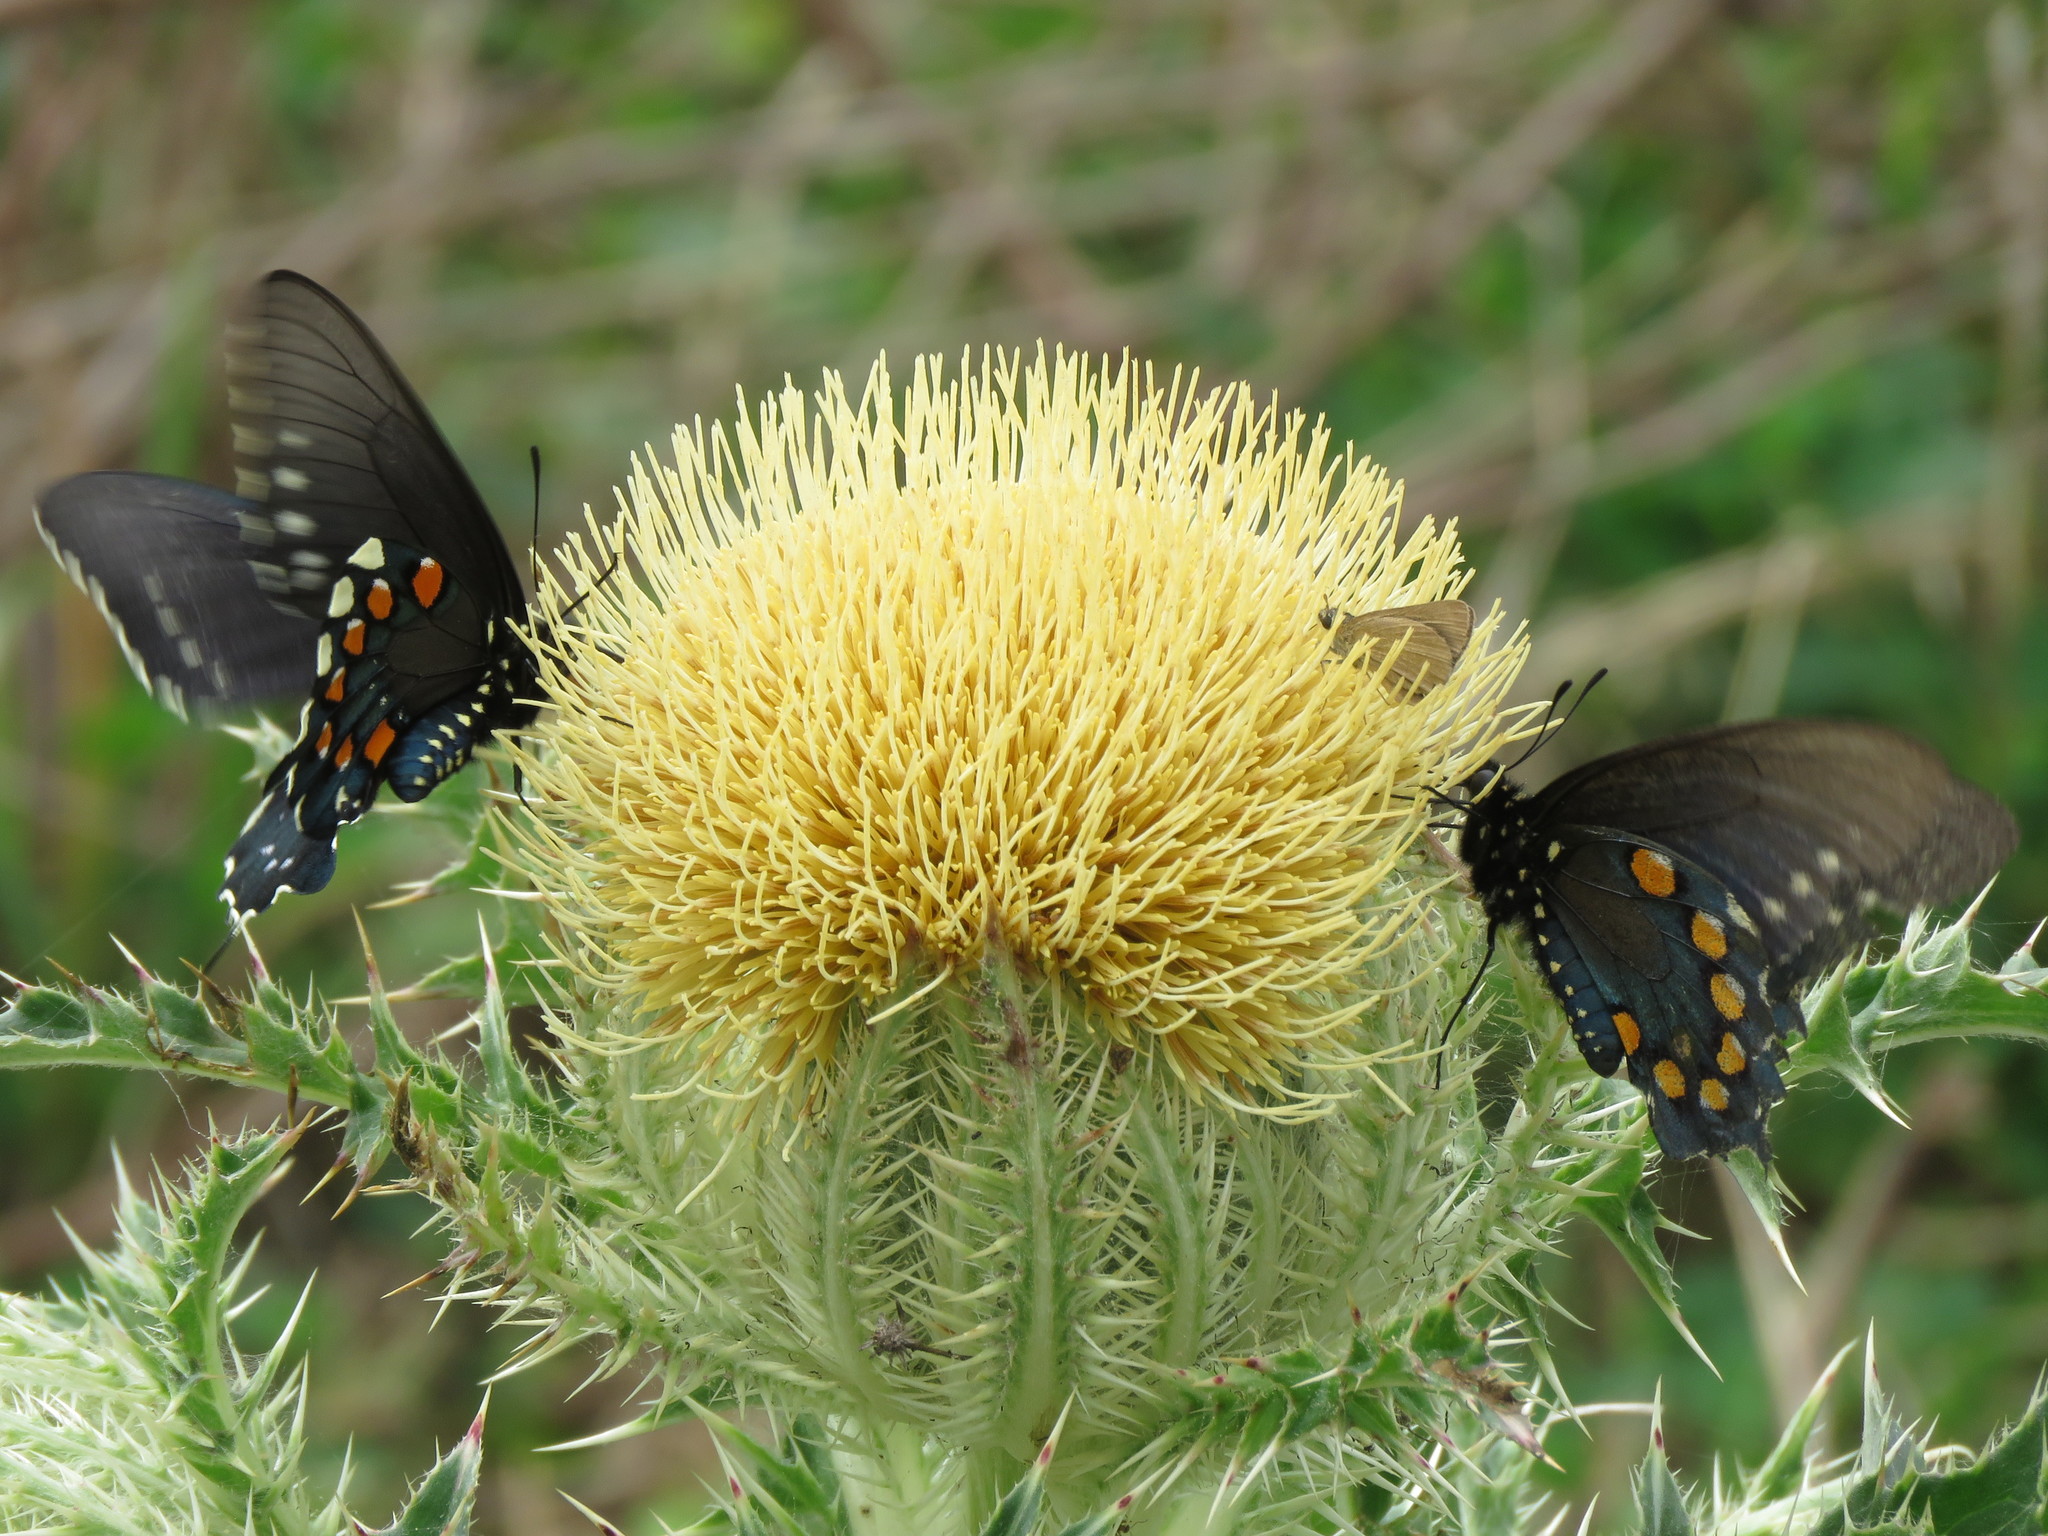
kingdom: Animalia
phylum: Arthropoda
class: Insecta
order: Lepidoptera
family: Papilionidae
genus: Battus
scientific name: Battus philenor
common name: Pipevine swallowtail
